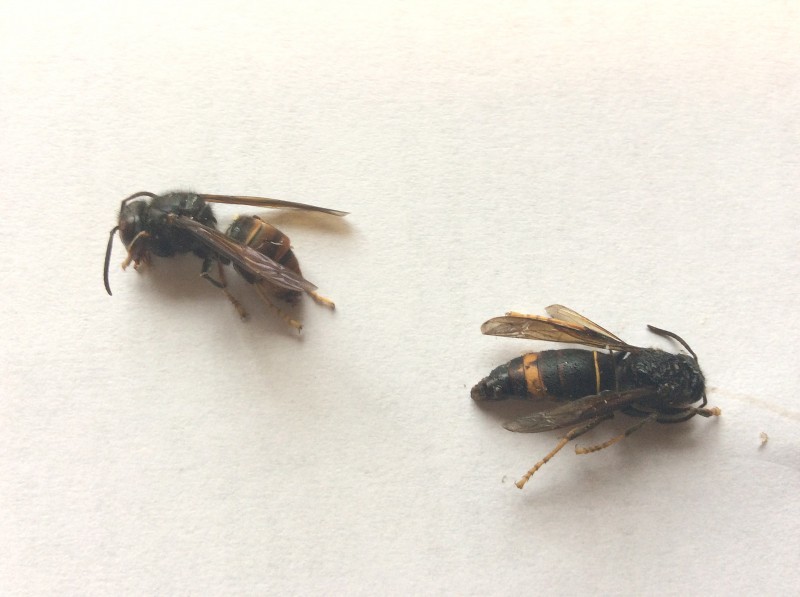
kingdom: Animalia
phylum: Arthropoda
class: Insecta
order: Hymenoptera
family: Vespidae
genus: Vespa
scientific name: Vespa velutina
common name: Asian hornet
